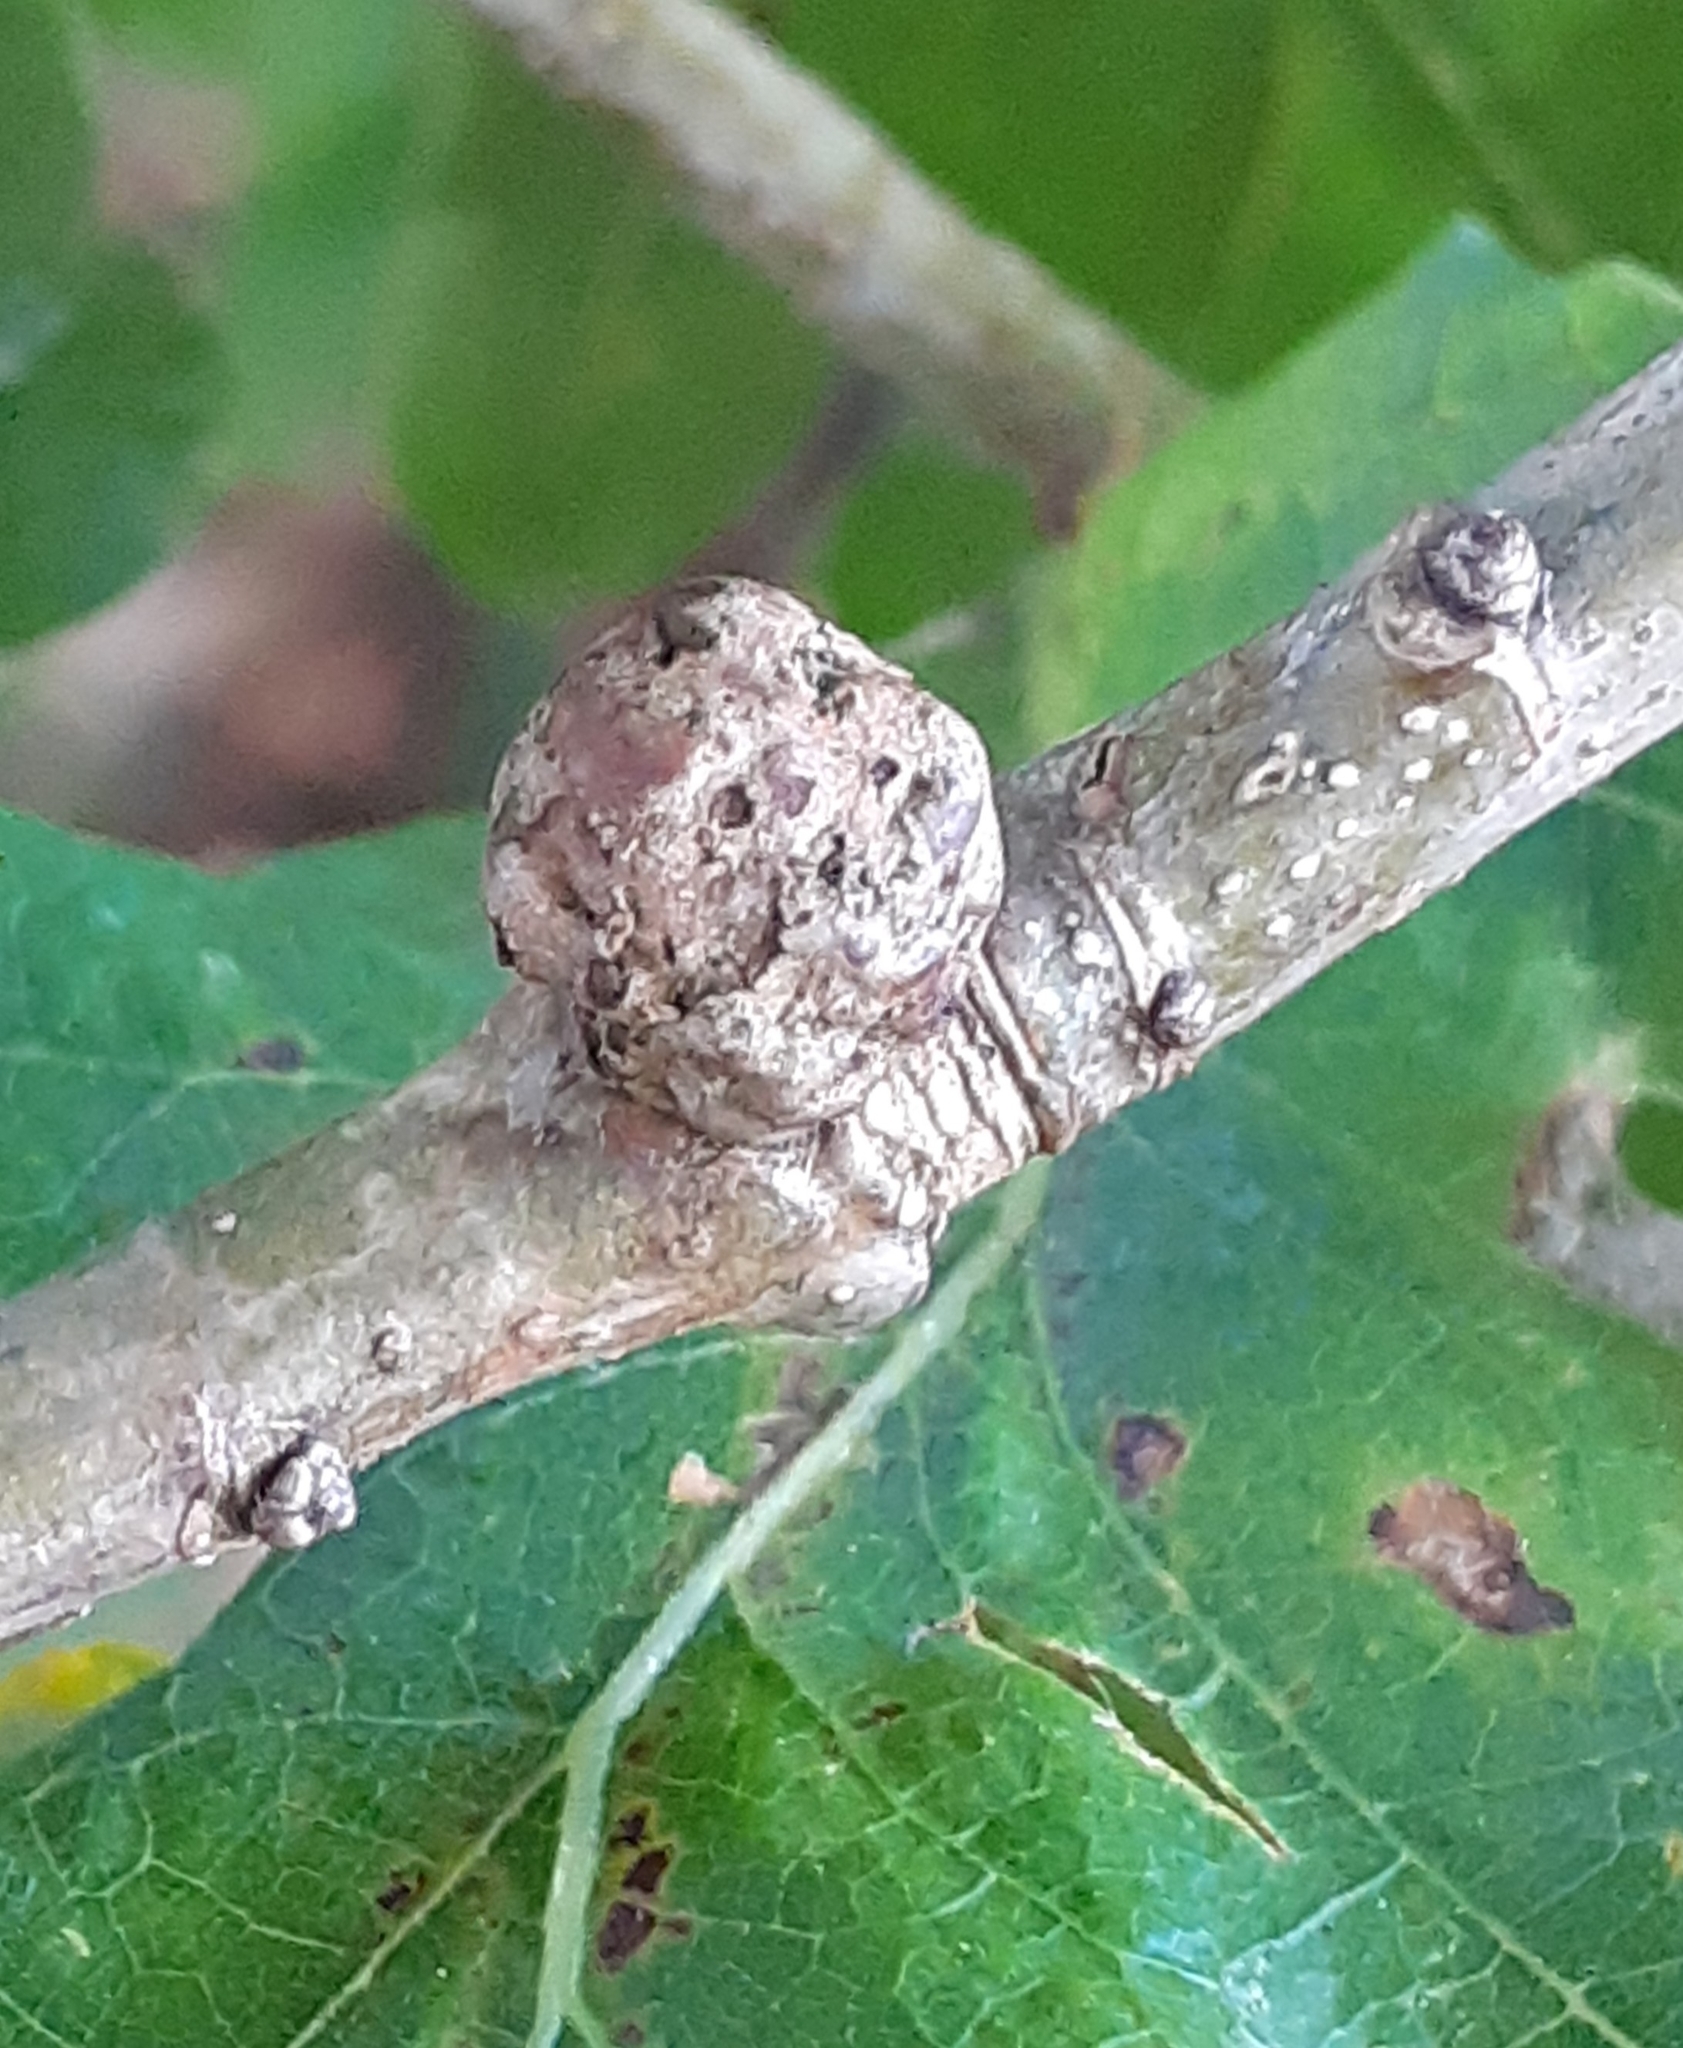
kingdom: Animalia
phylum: Arthropoda
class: Insecta
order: Hymenoptera
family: Cynipidae
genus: Andricus
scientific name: Andricus lignicolus
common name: Cola-nut gall
